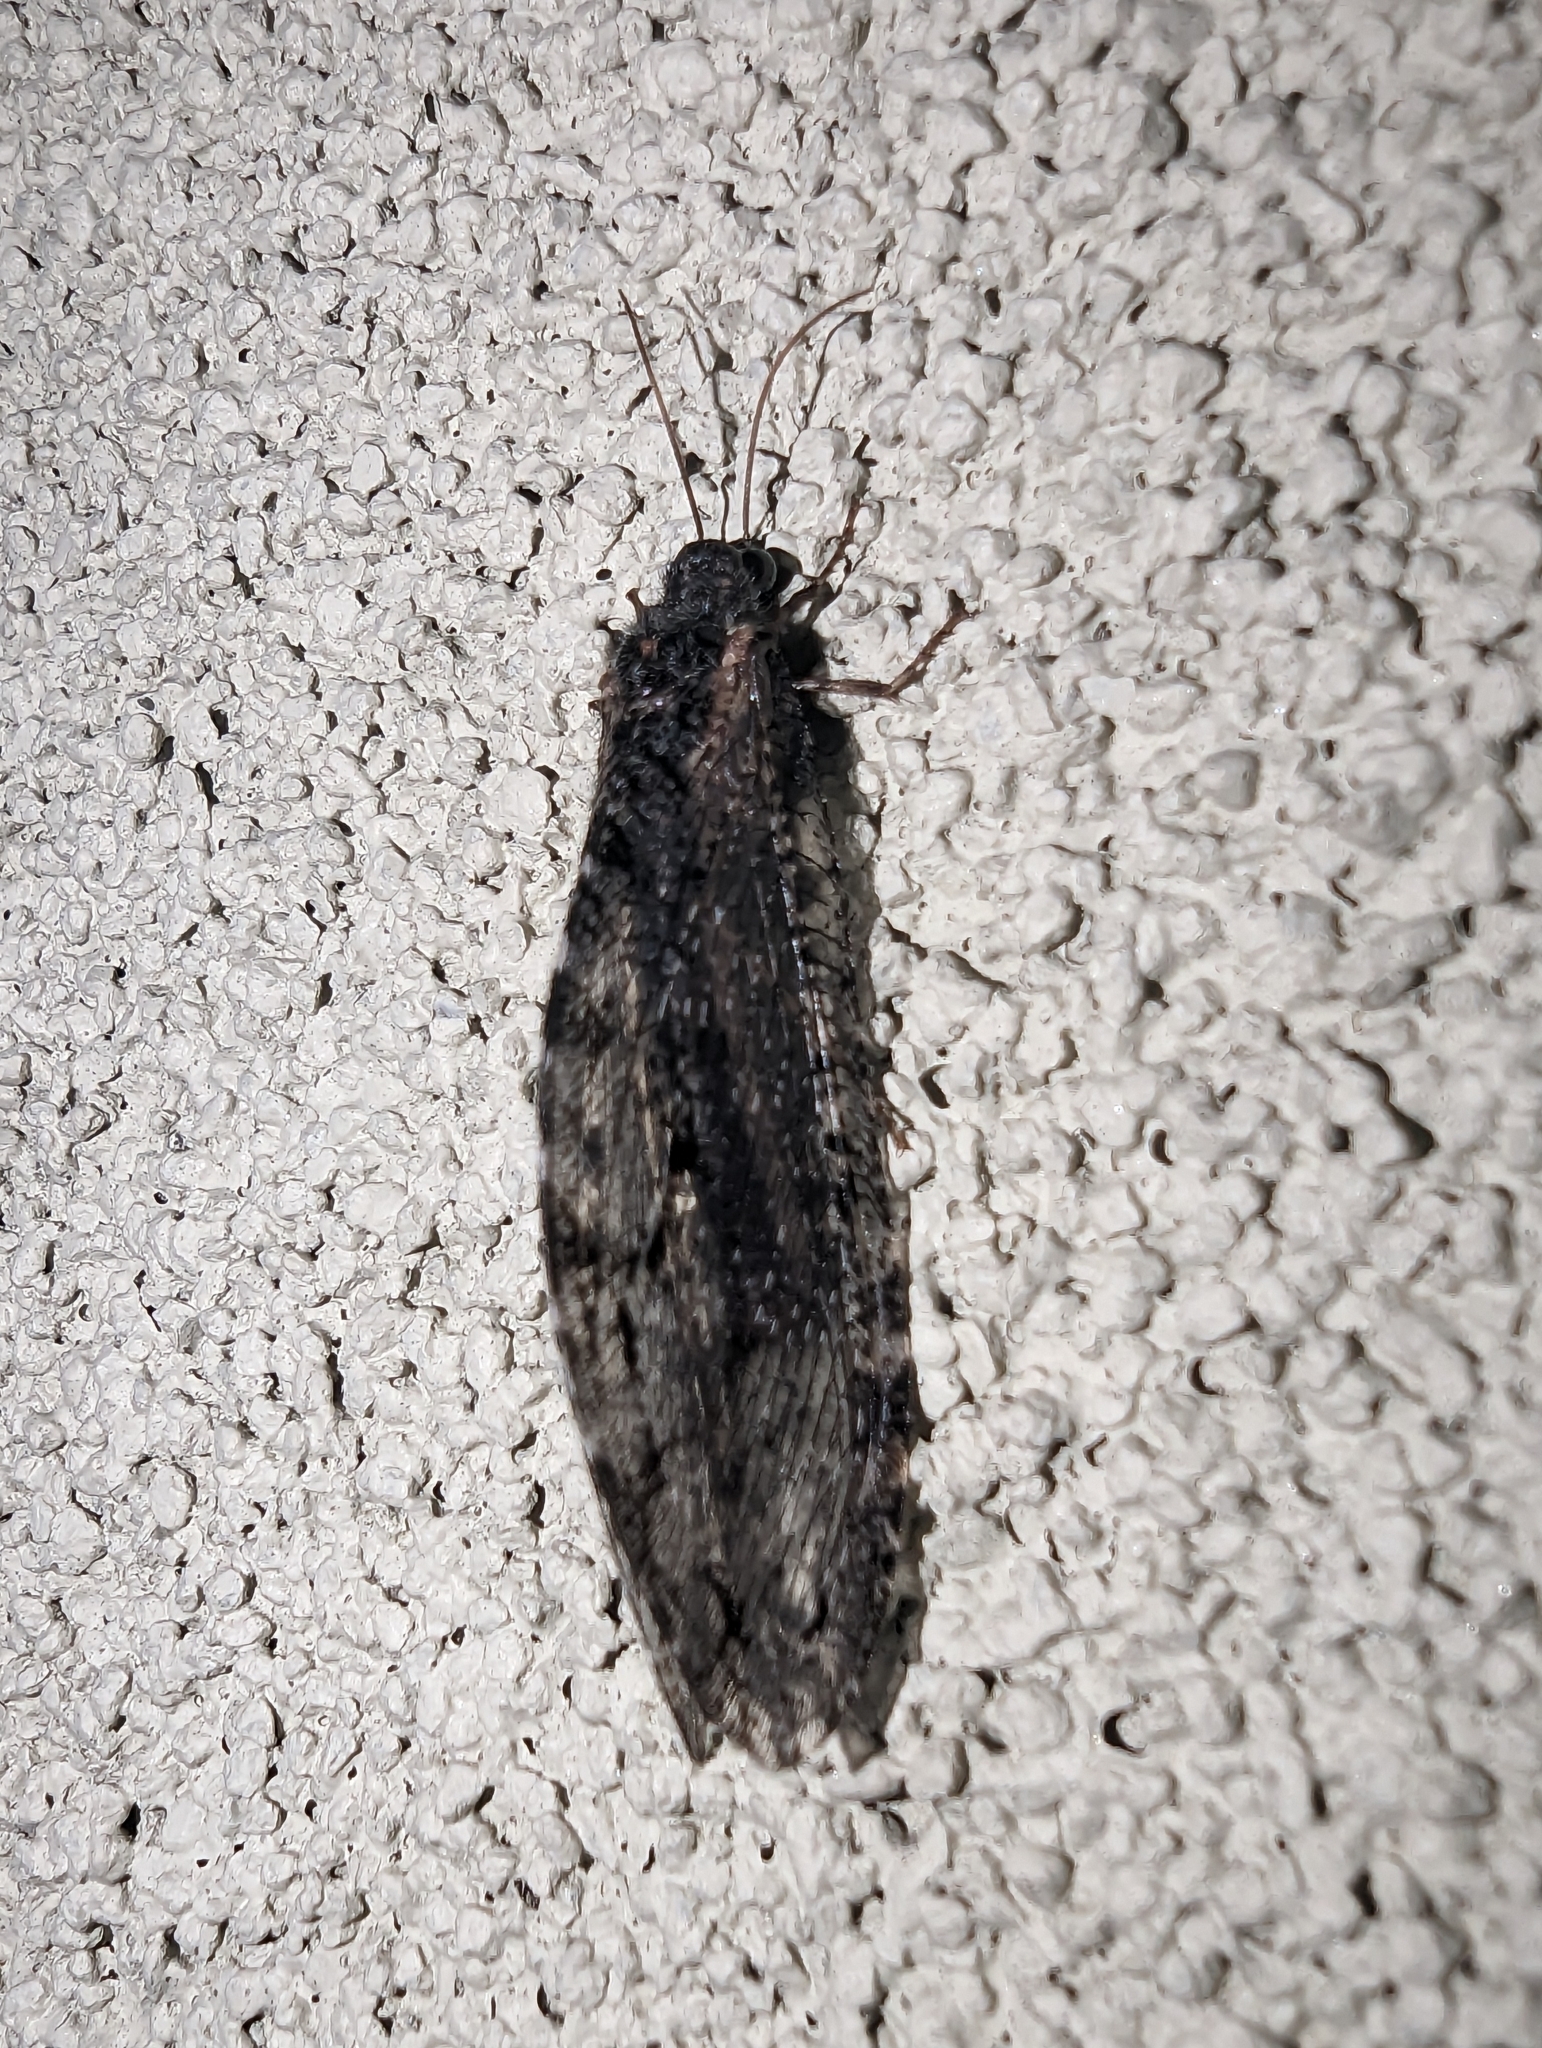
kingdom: Animalia
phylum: Arthropoda
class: Insecta
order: Neuroptera
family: Ithonidae
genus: Polystoechotes
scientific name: Polystoechotes punctata
